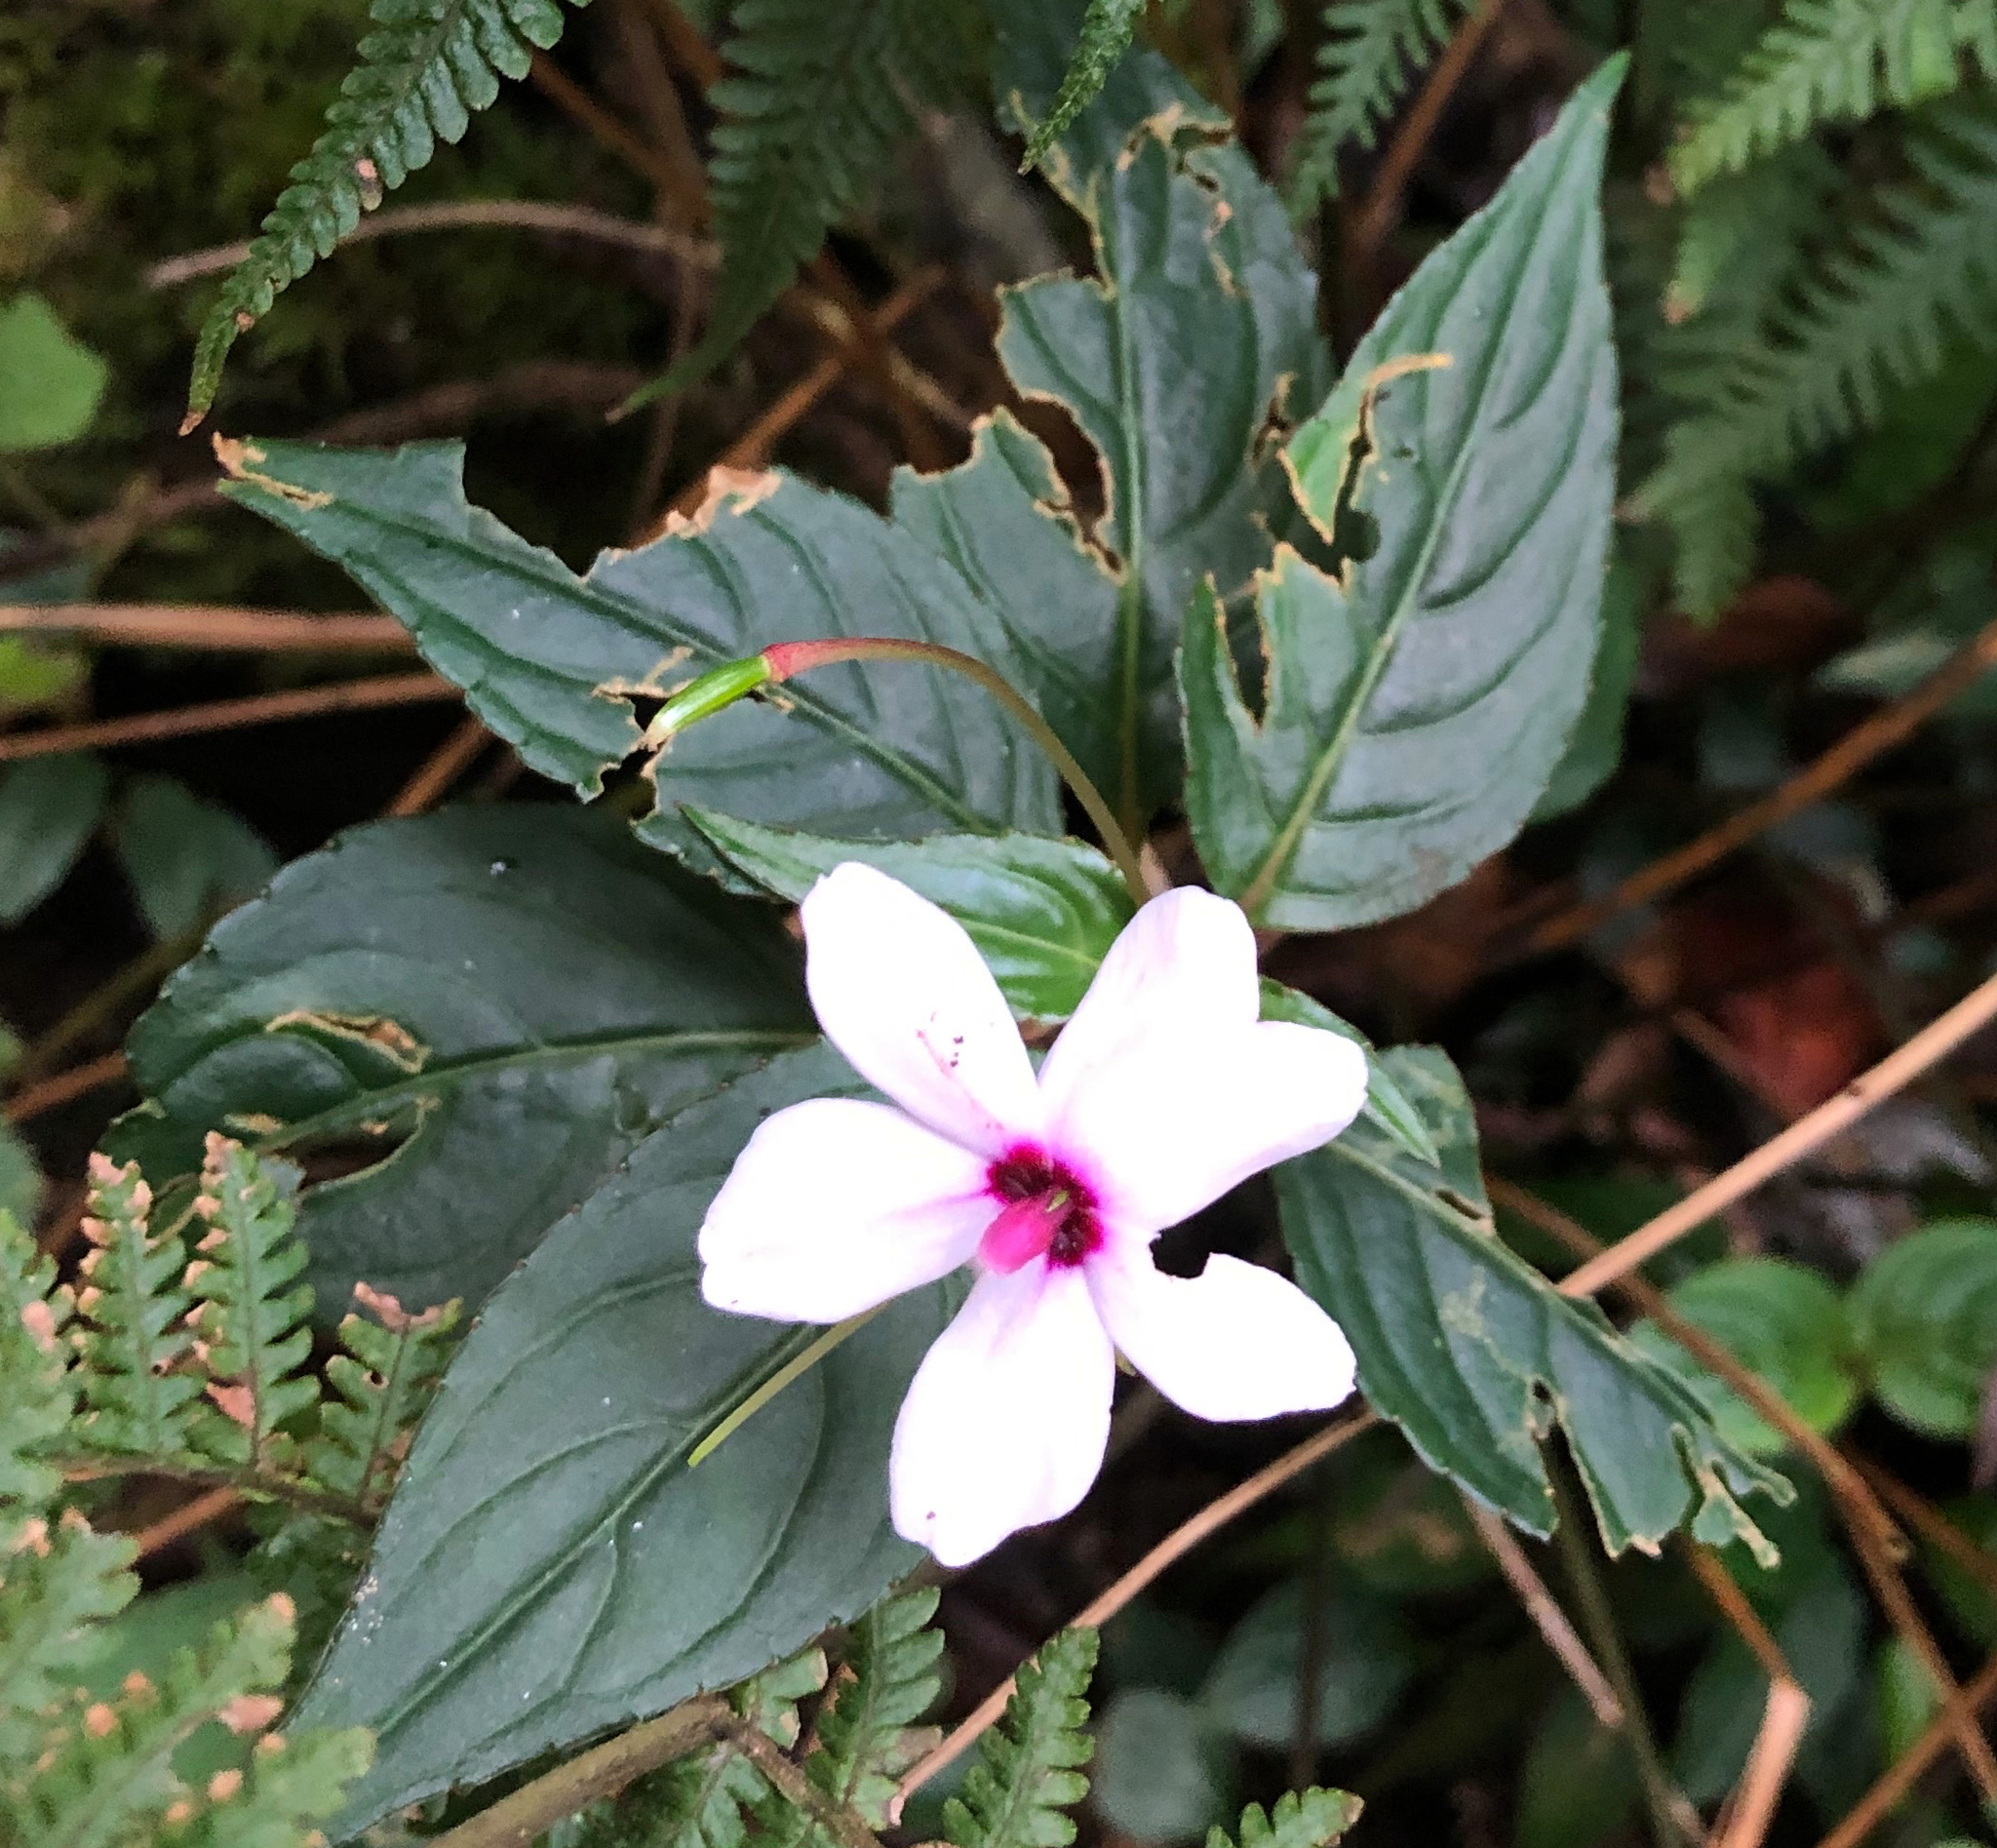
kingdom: Plantae
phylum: Tracheophyta
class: Magnoliopsida
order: Ericales
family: Balsaminaceae
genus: Impatiens
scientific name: Impatiens javensis
